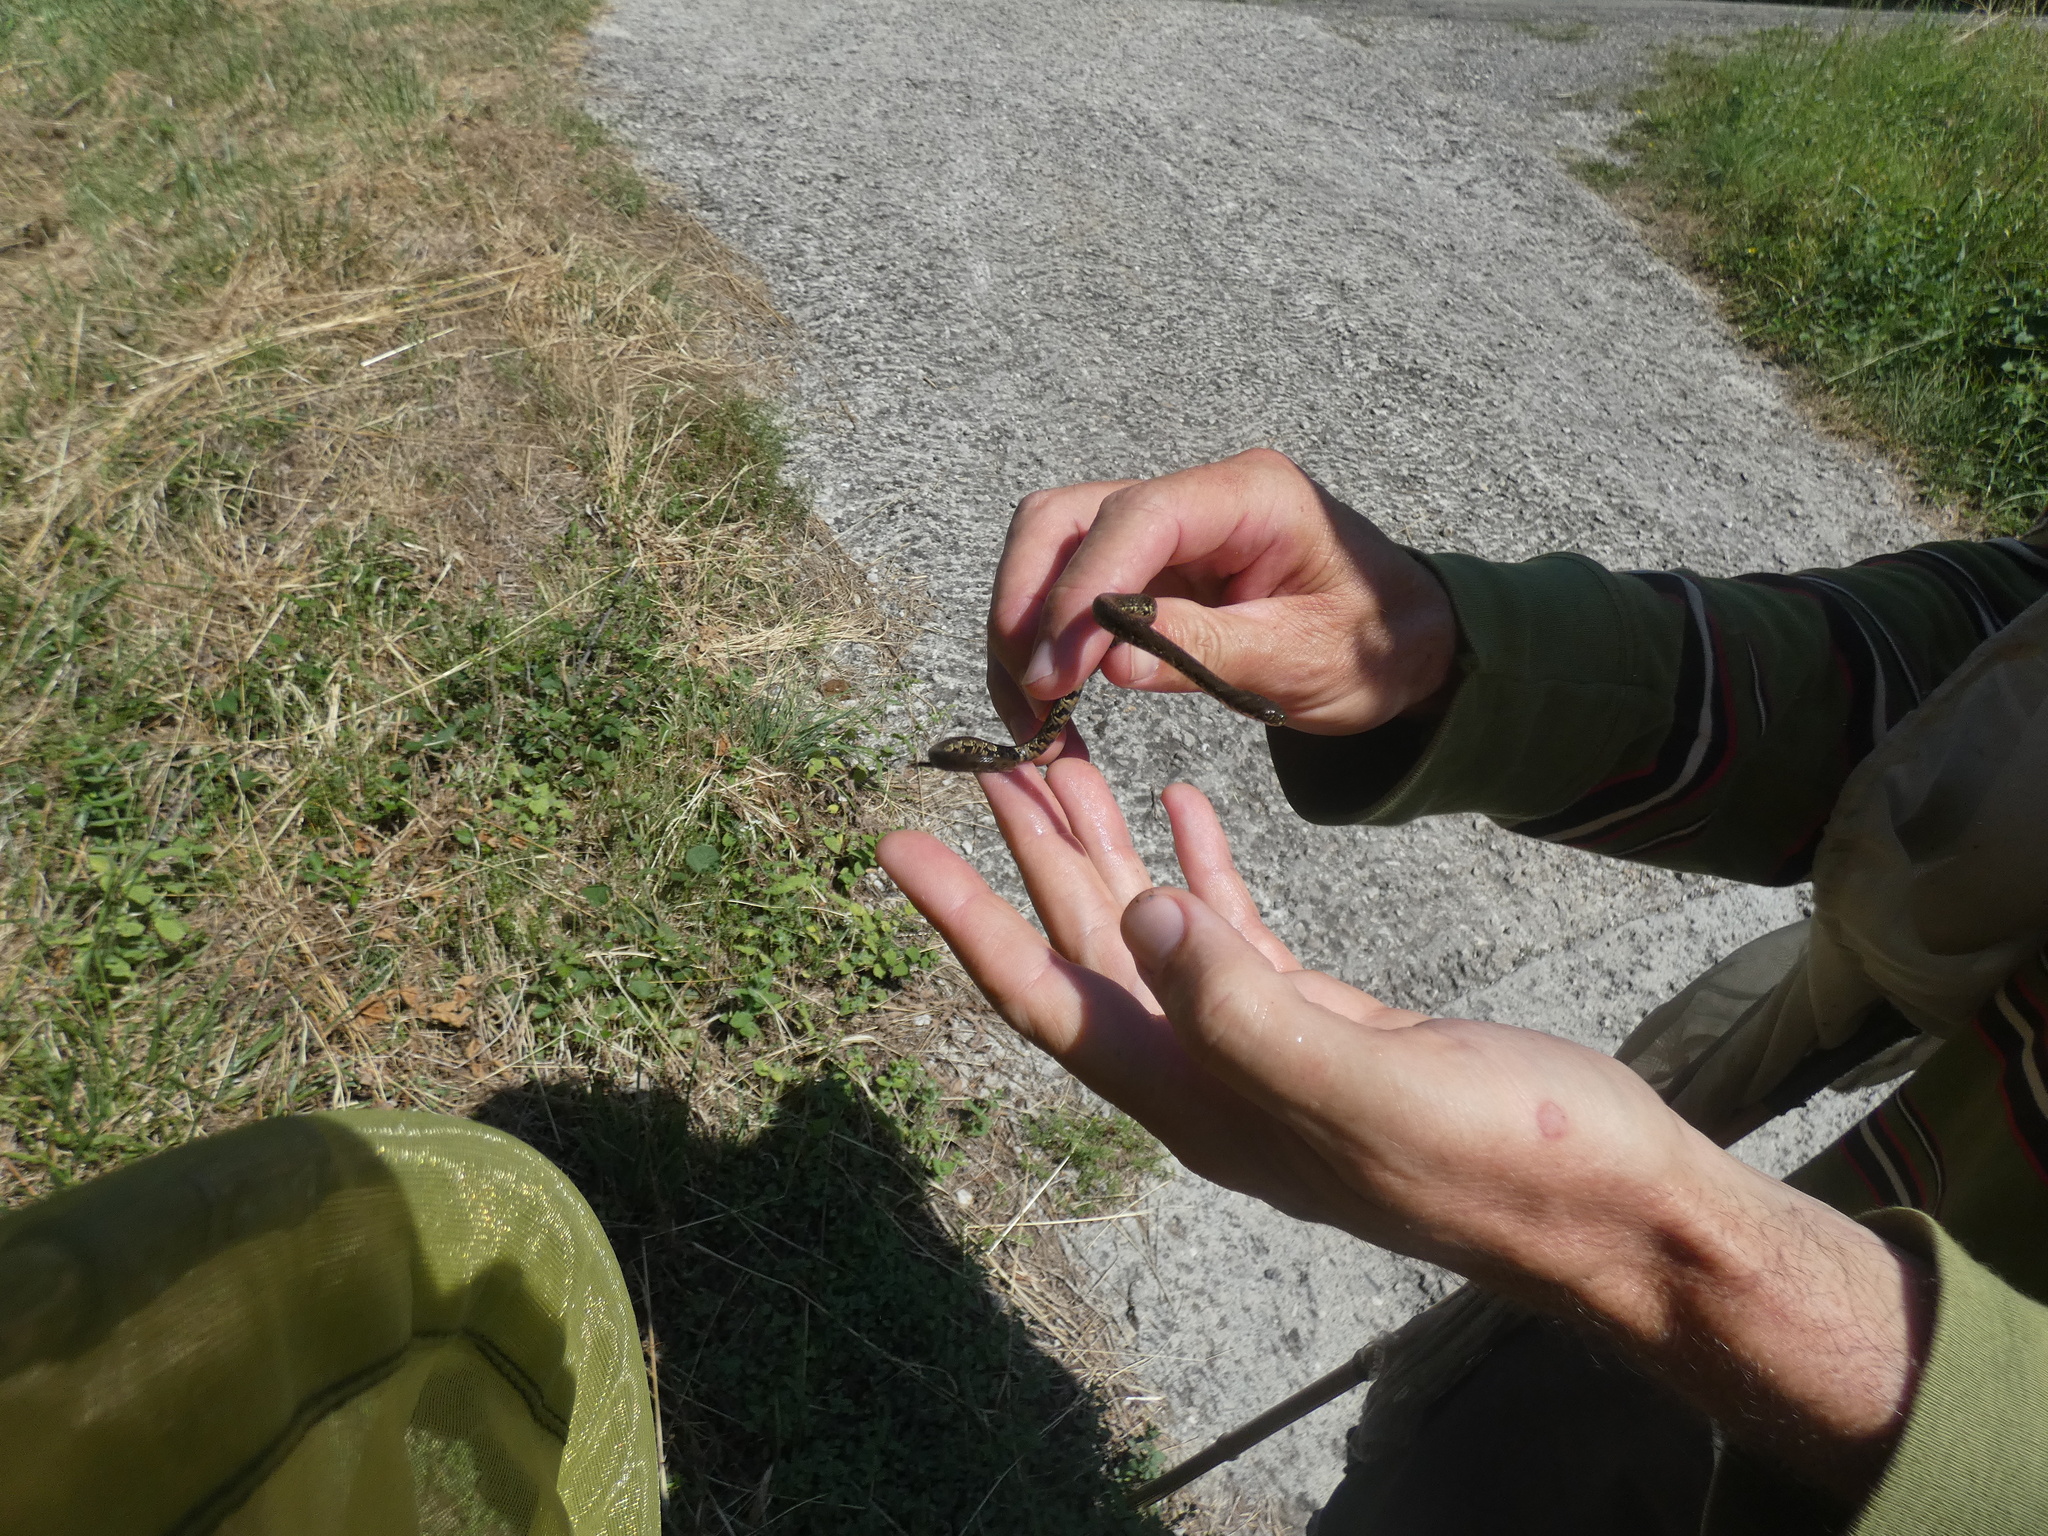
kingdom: Animalia
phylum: Chordata
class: Squamata
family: Colubridae
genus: Natrix
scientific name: Natrix maura
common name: Viperine water snake
